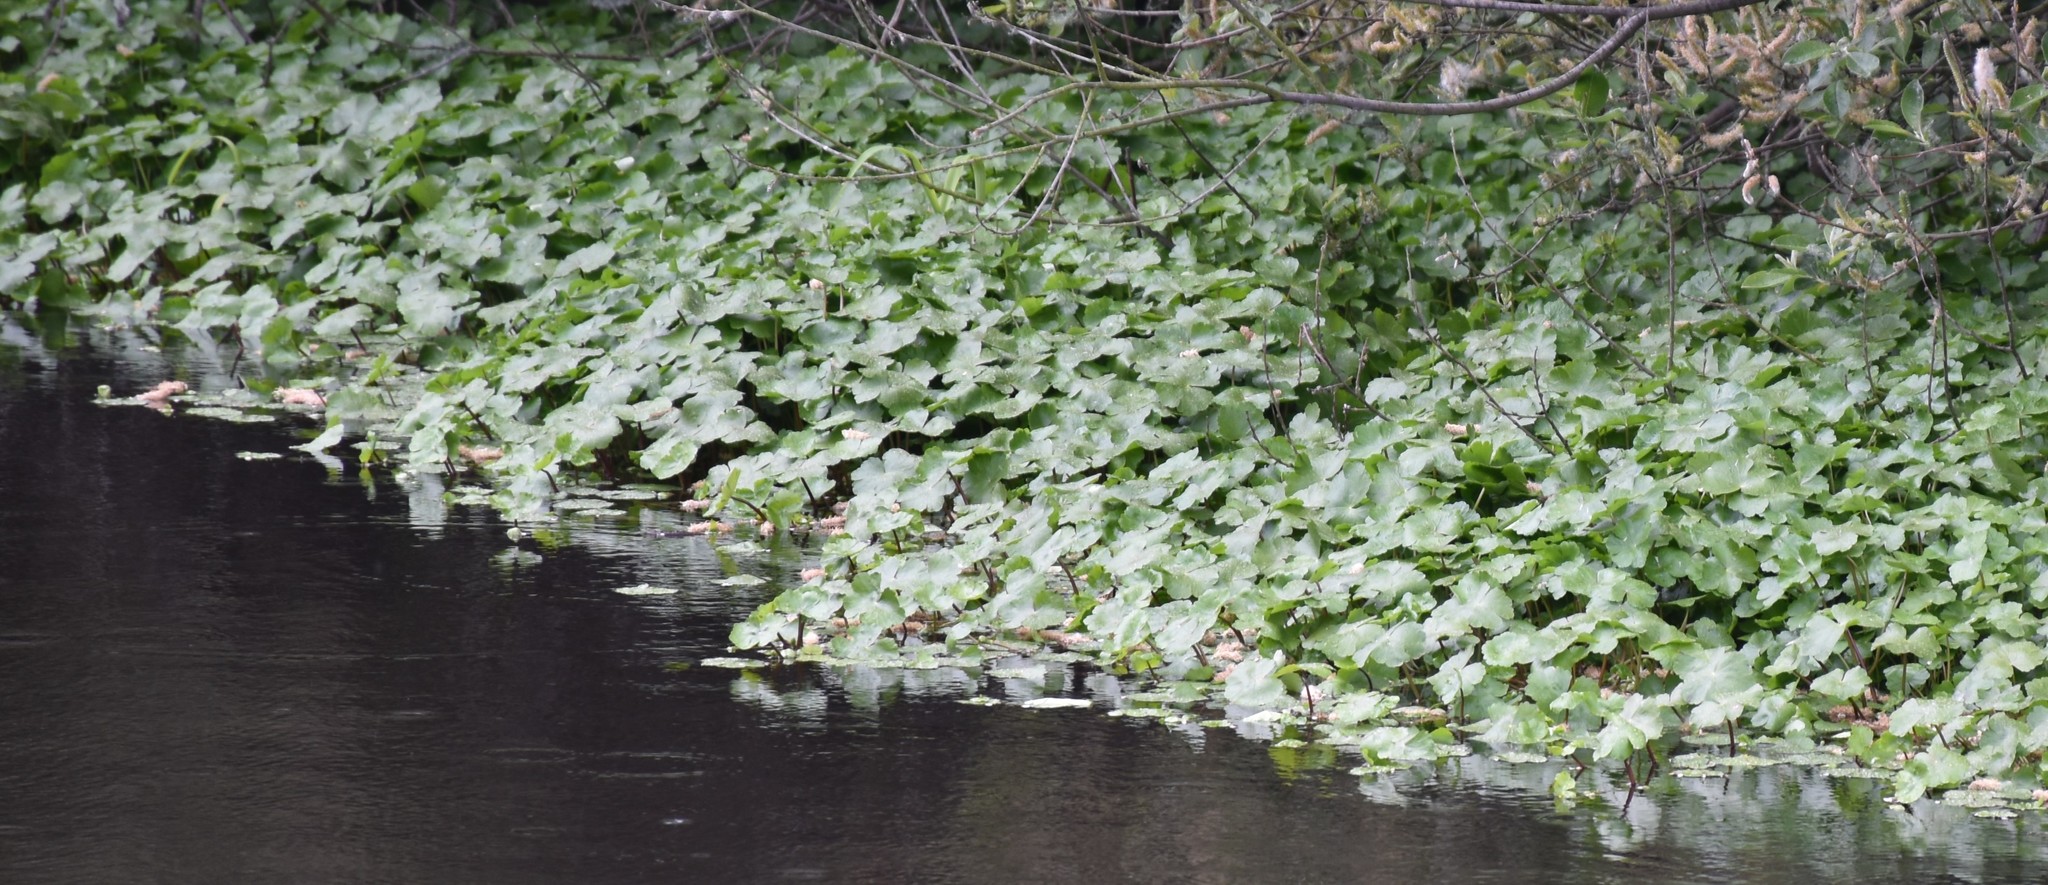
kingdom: Plantae
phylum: Tracheophyta
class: Magnoliopsida
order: Apiales
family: Araliaceae
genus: Hydrocotyle
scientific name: Hydrocotyle ranunculoides
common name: Floating pennywort
